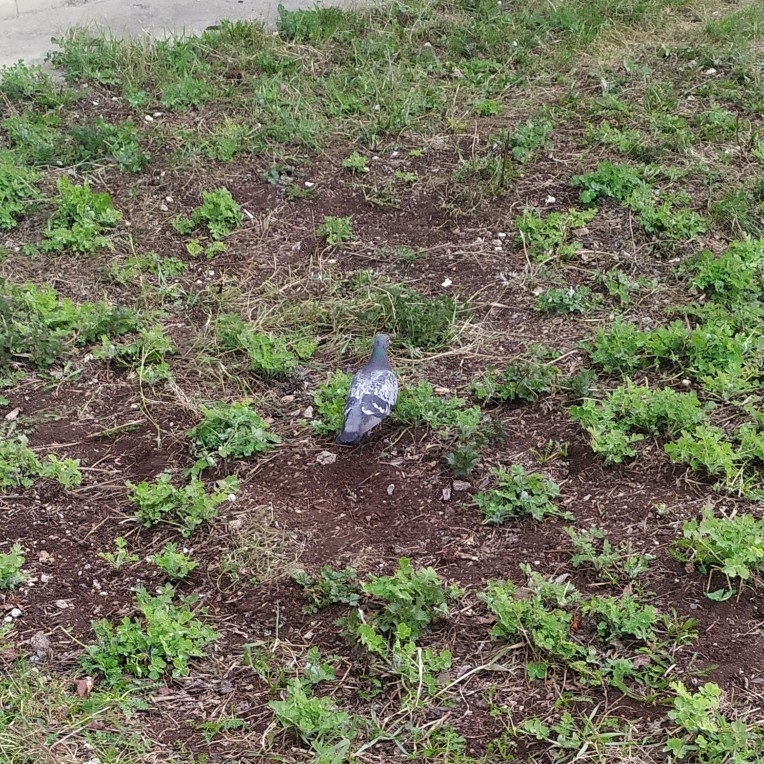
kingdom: Animalia
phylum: Chordata
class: Aves
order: Columbiformes
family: Columbidae
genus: Columba
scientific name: Columba livia
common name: Rock pigeon
